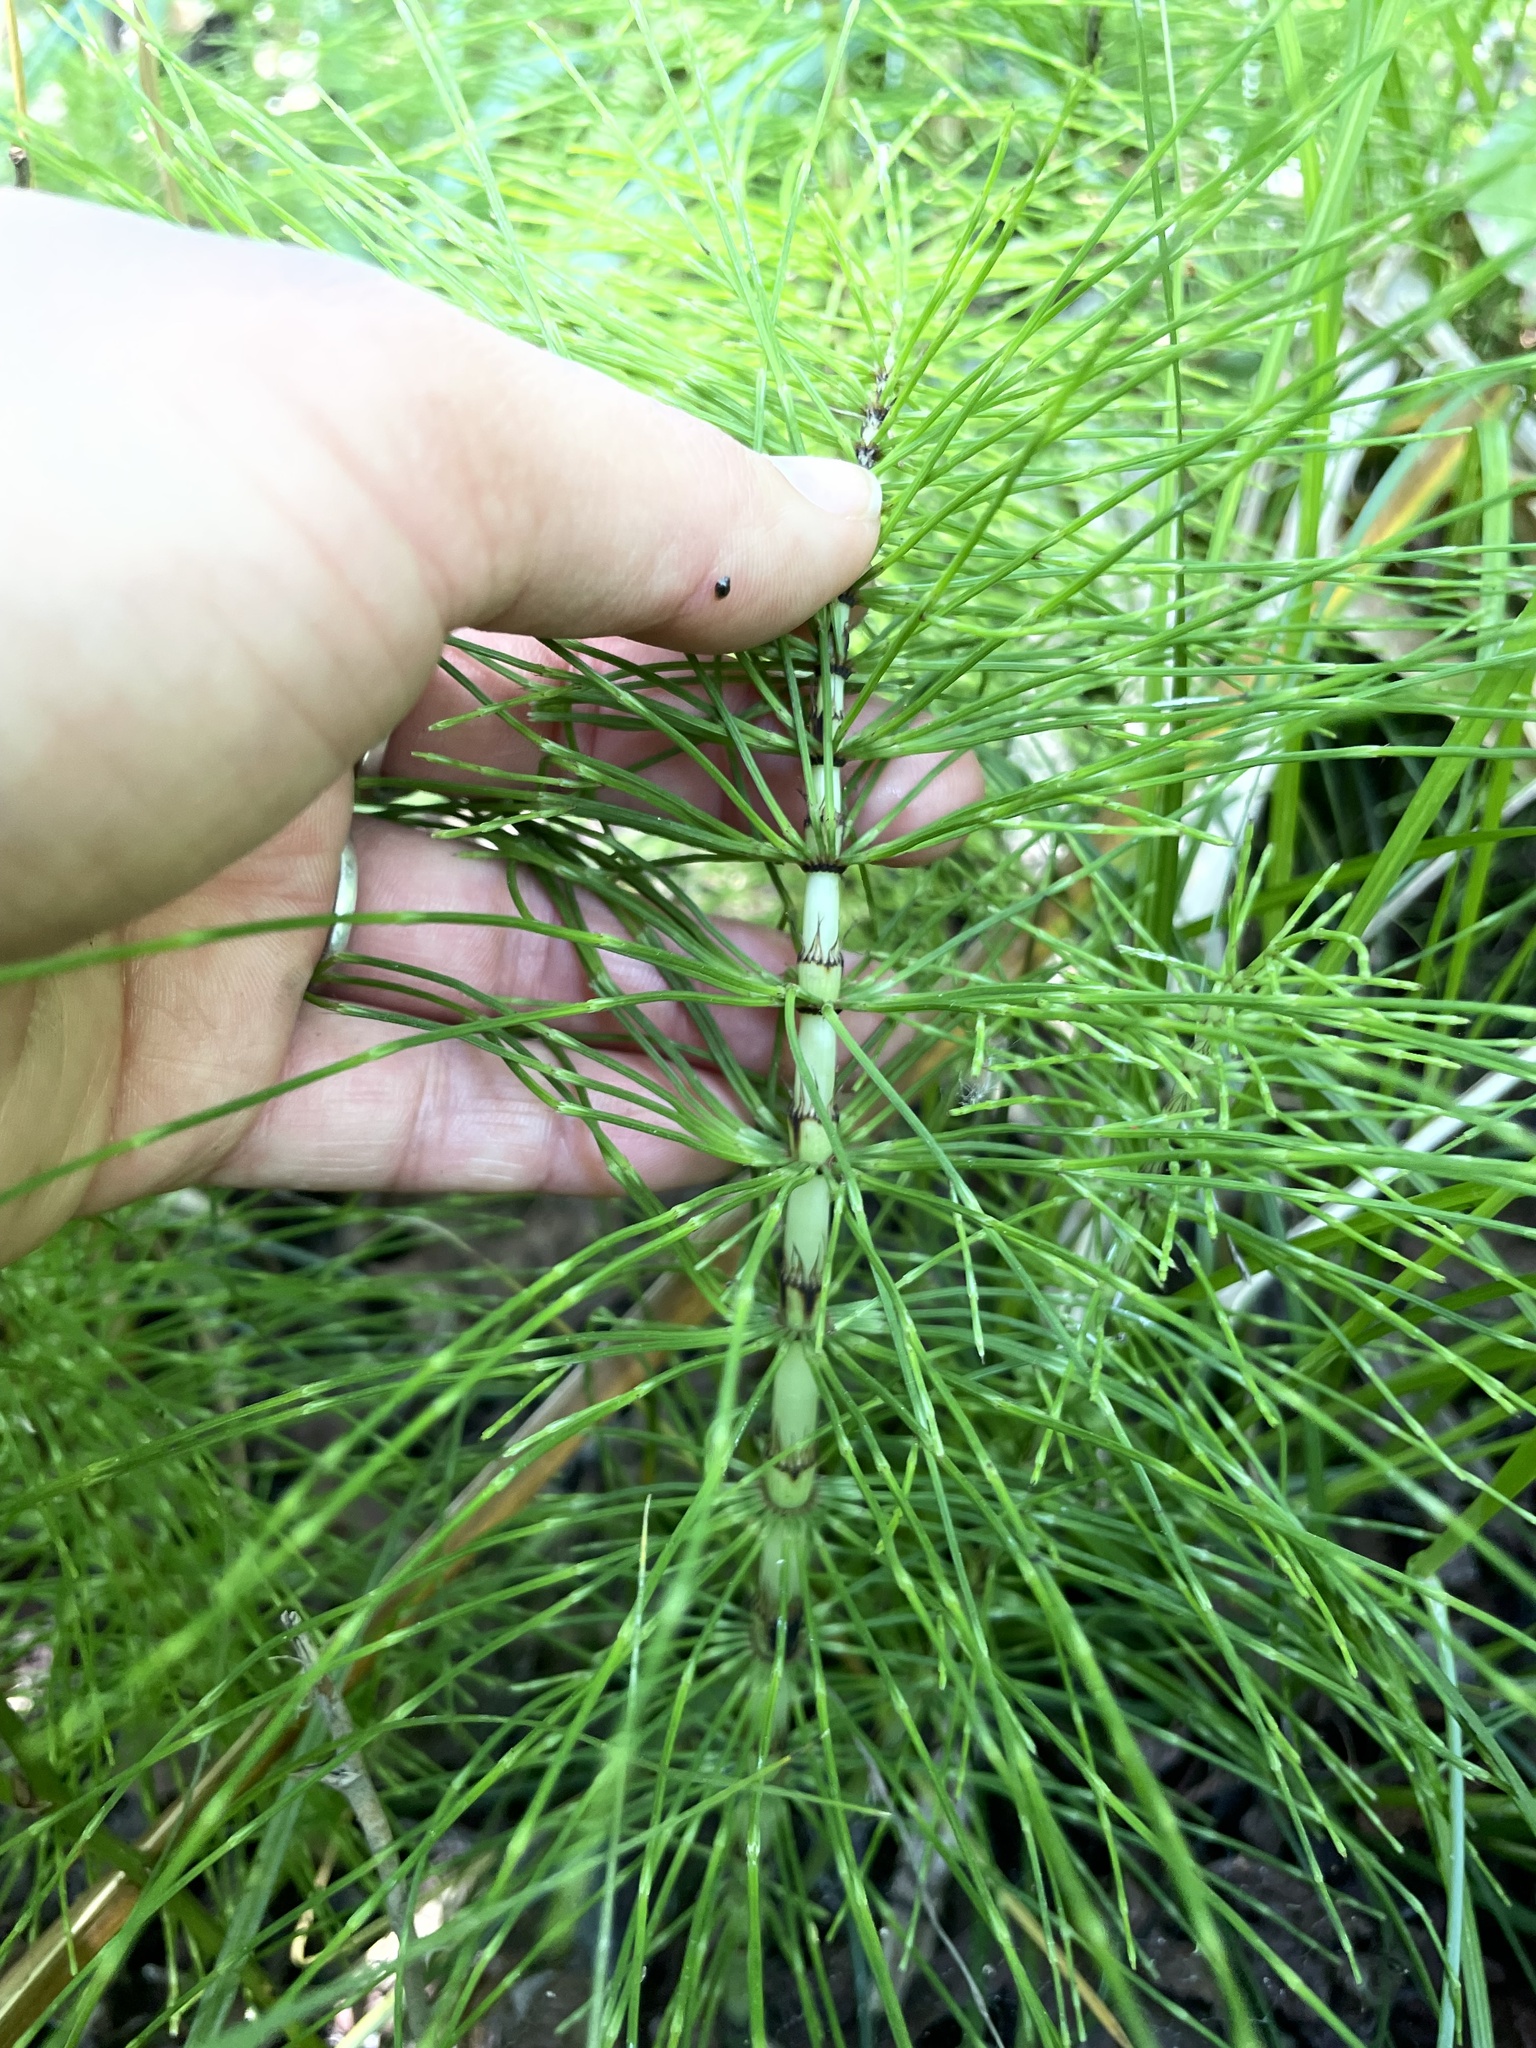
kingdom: Plantae
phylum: Tracheophyta
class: Polypodiopsida
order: Equisetales
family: Equisetaceae
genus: Equisetum
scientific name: Equisetum telmateia
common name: Great horsetail
